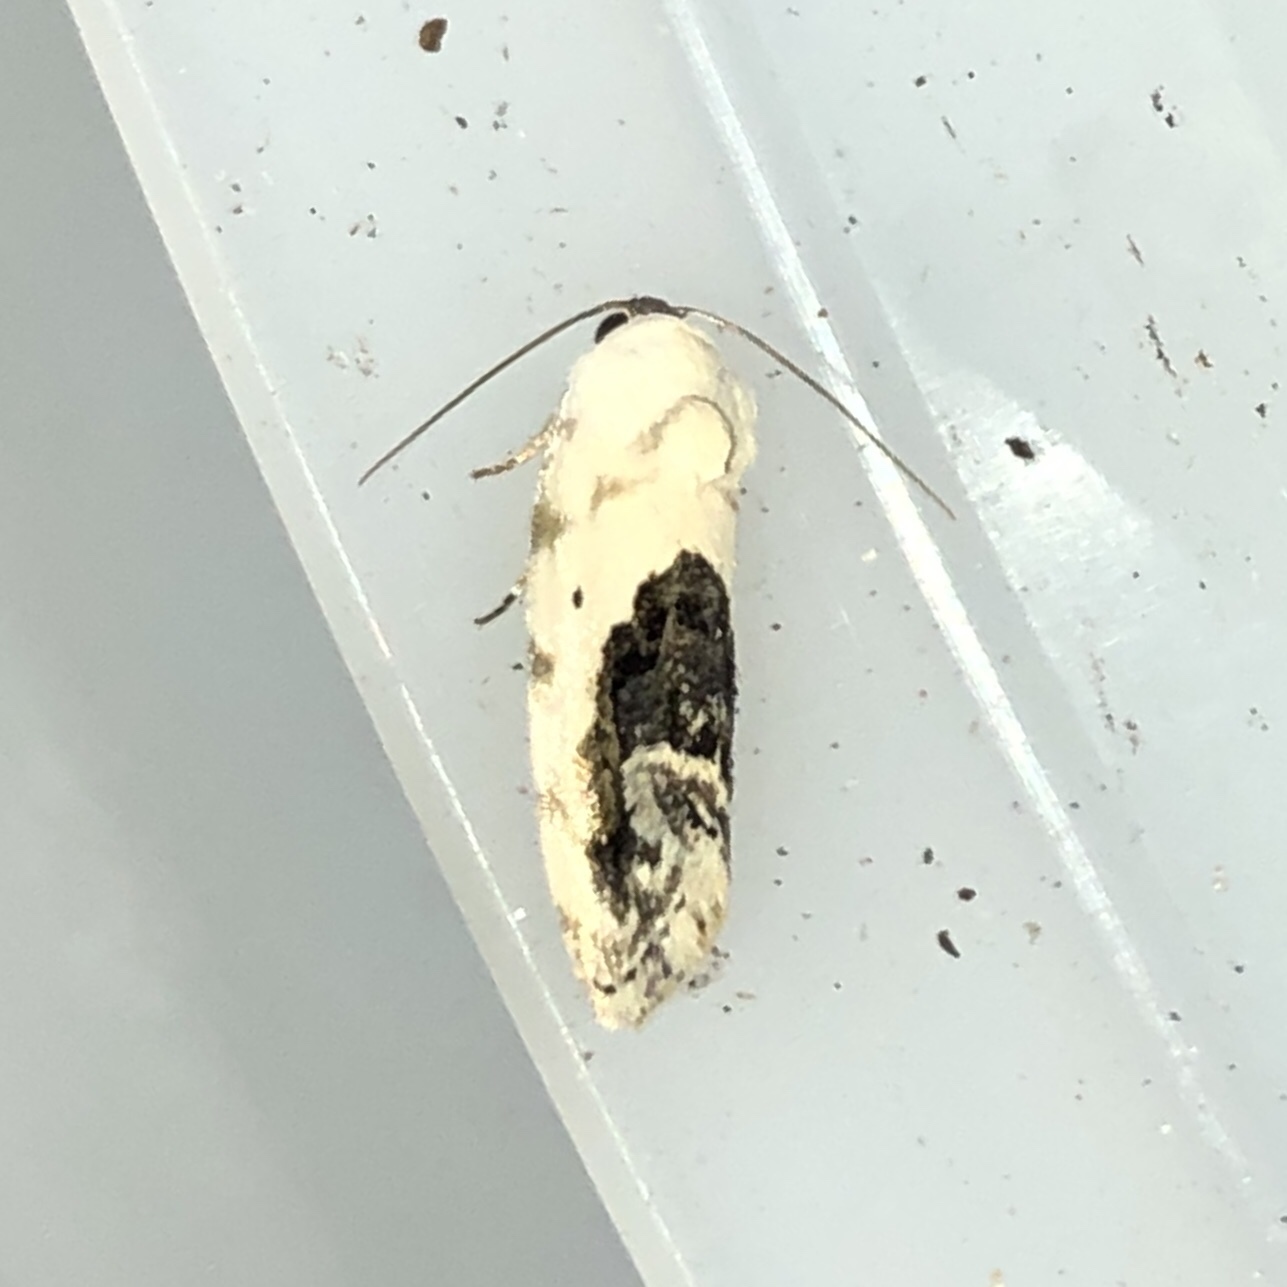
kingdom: Animalia
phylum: Arthropoda
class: Insecta
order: Lepidoptera
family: Noctuidae
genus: Acontia
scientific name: Acontia erastrioides
